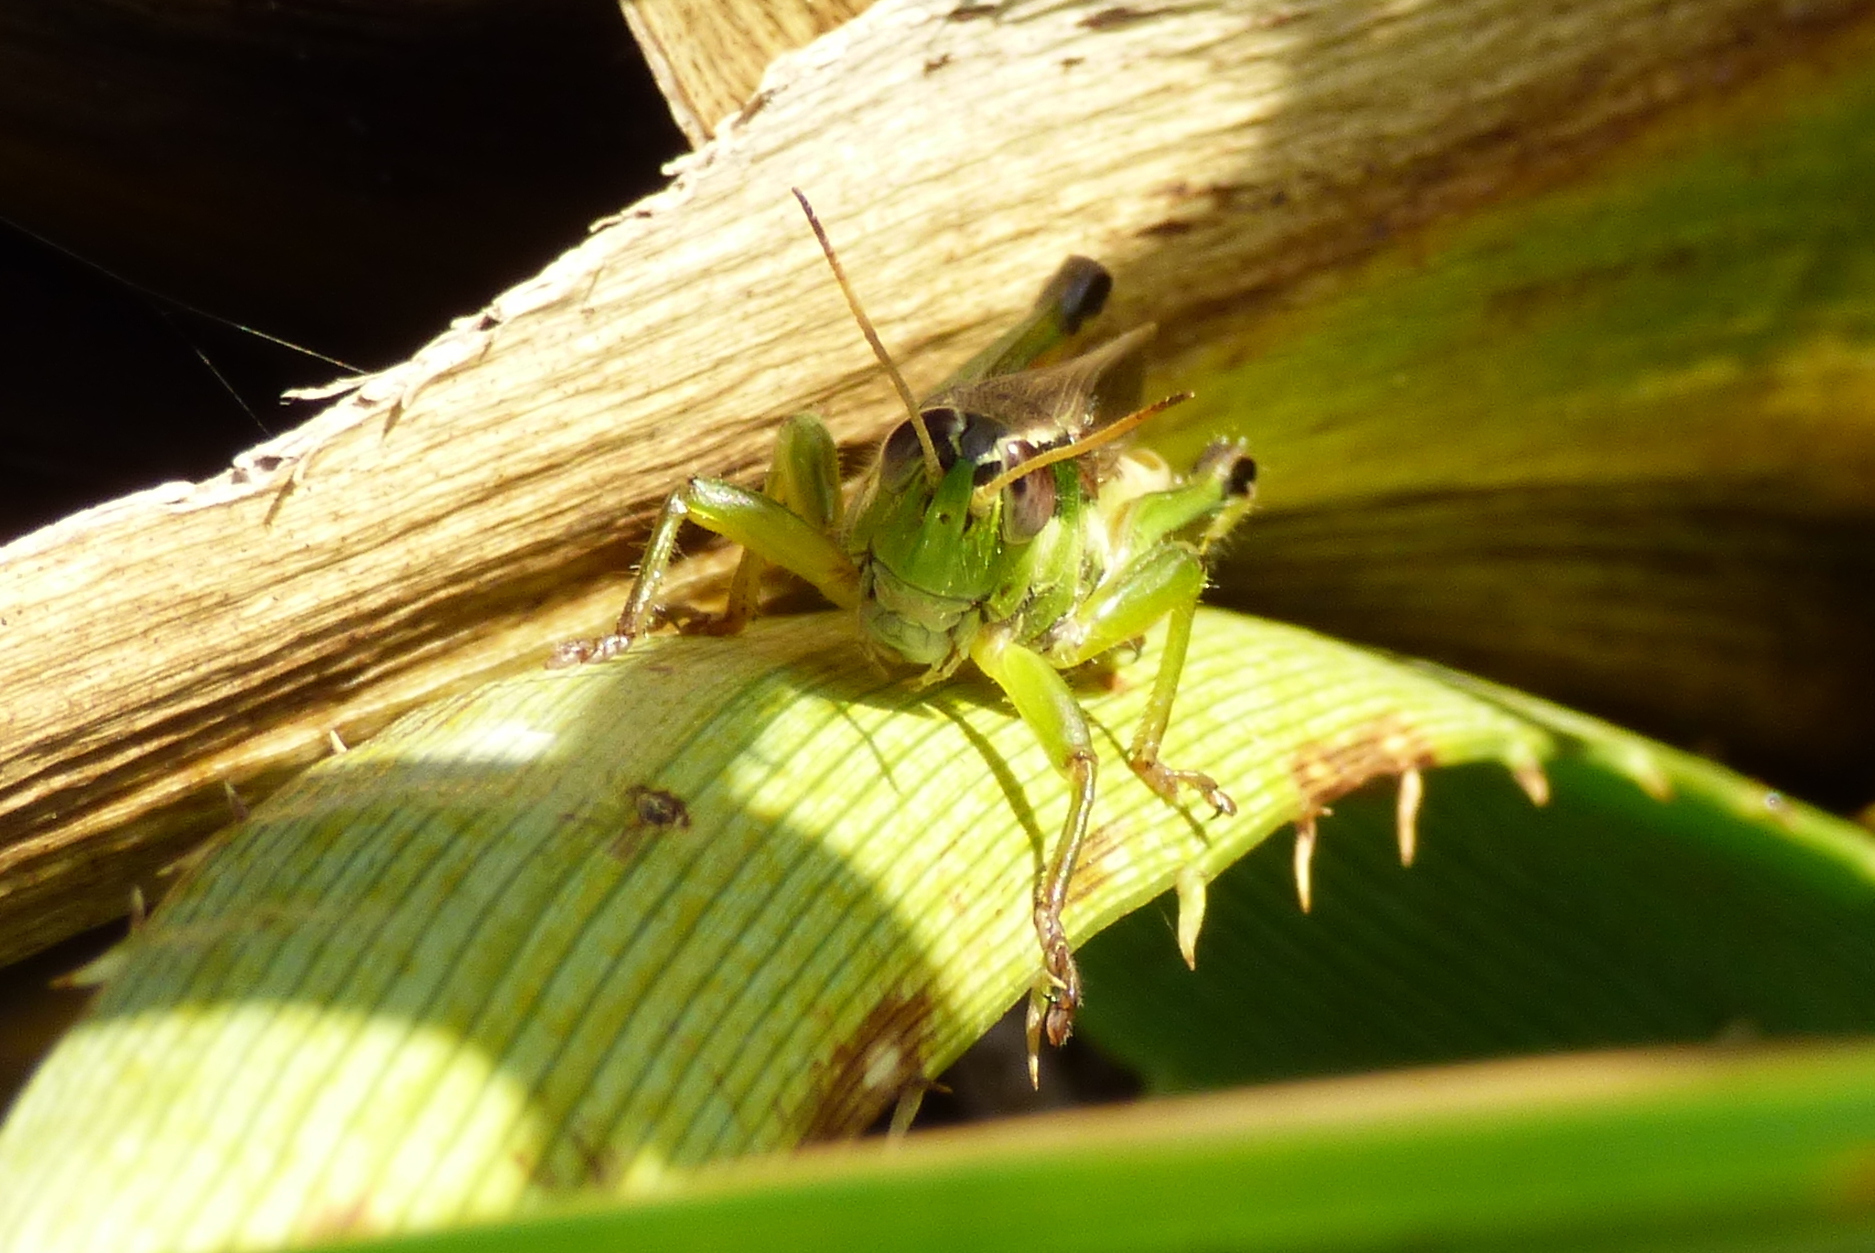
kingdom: Animalia
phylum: Arthropoda
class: Insecta
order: Orthoptera
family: Acrididae
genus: Scotussa
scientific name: Scotussa cliens
